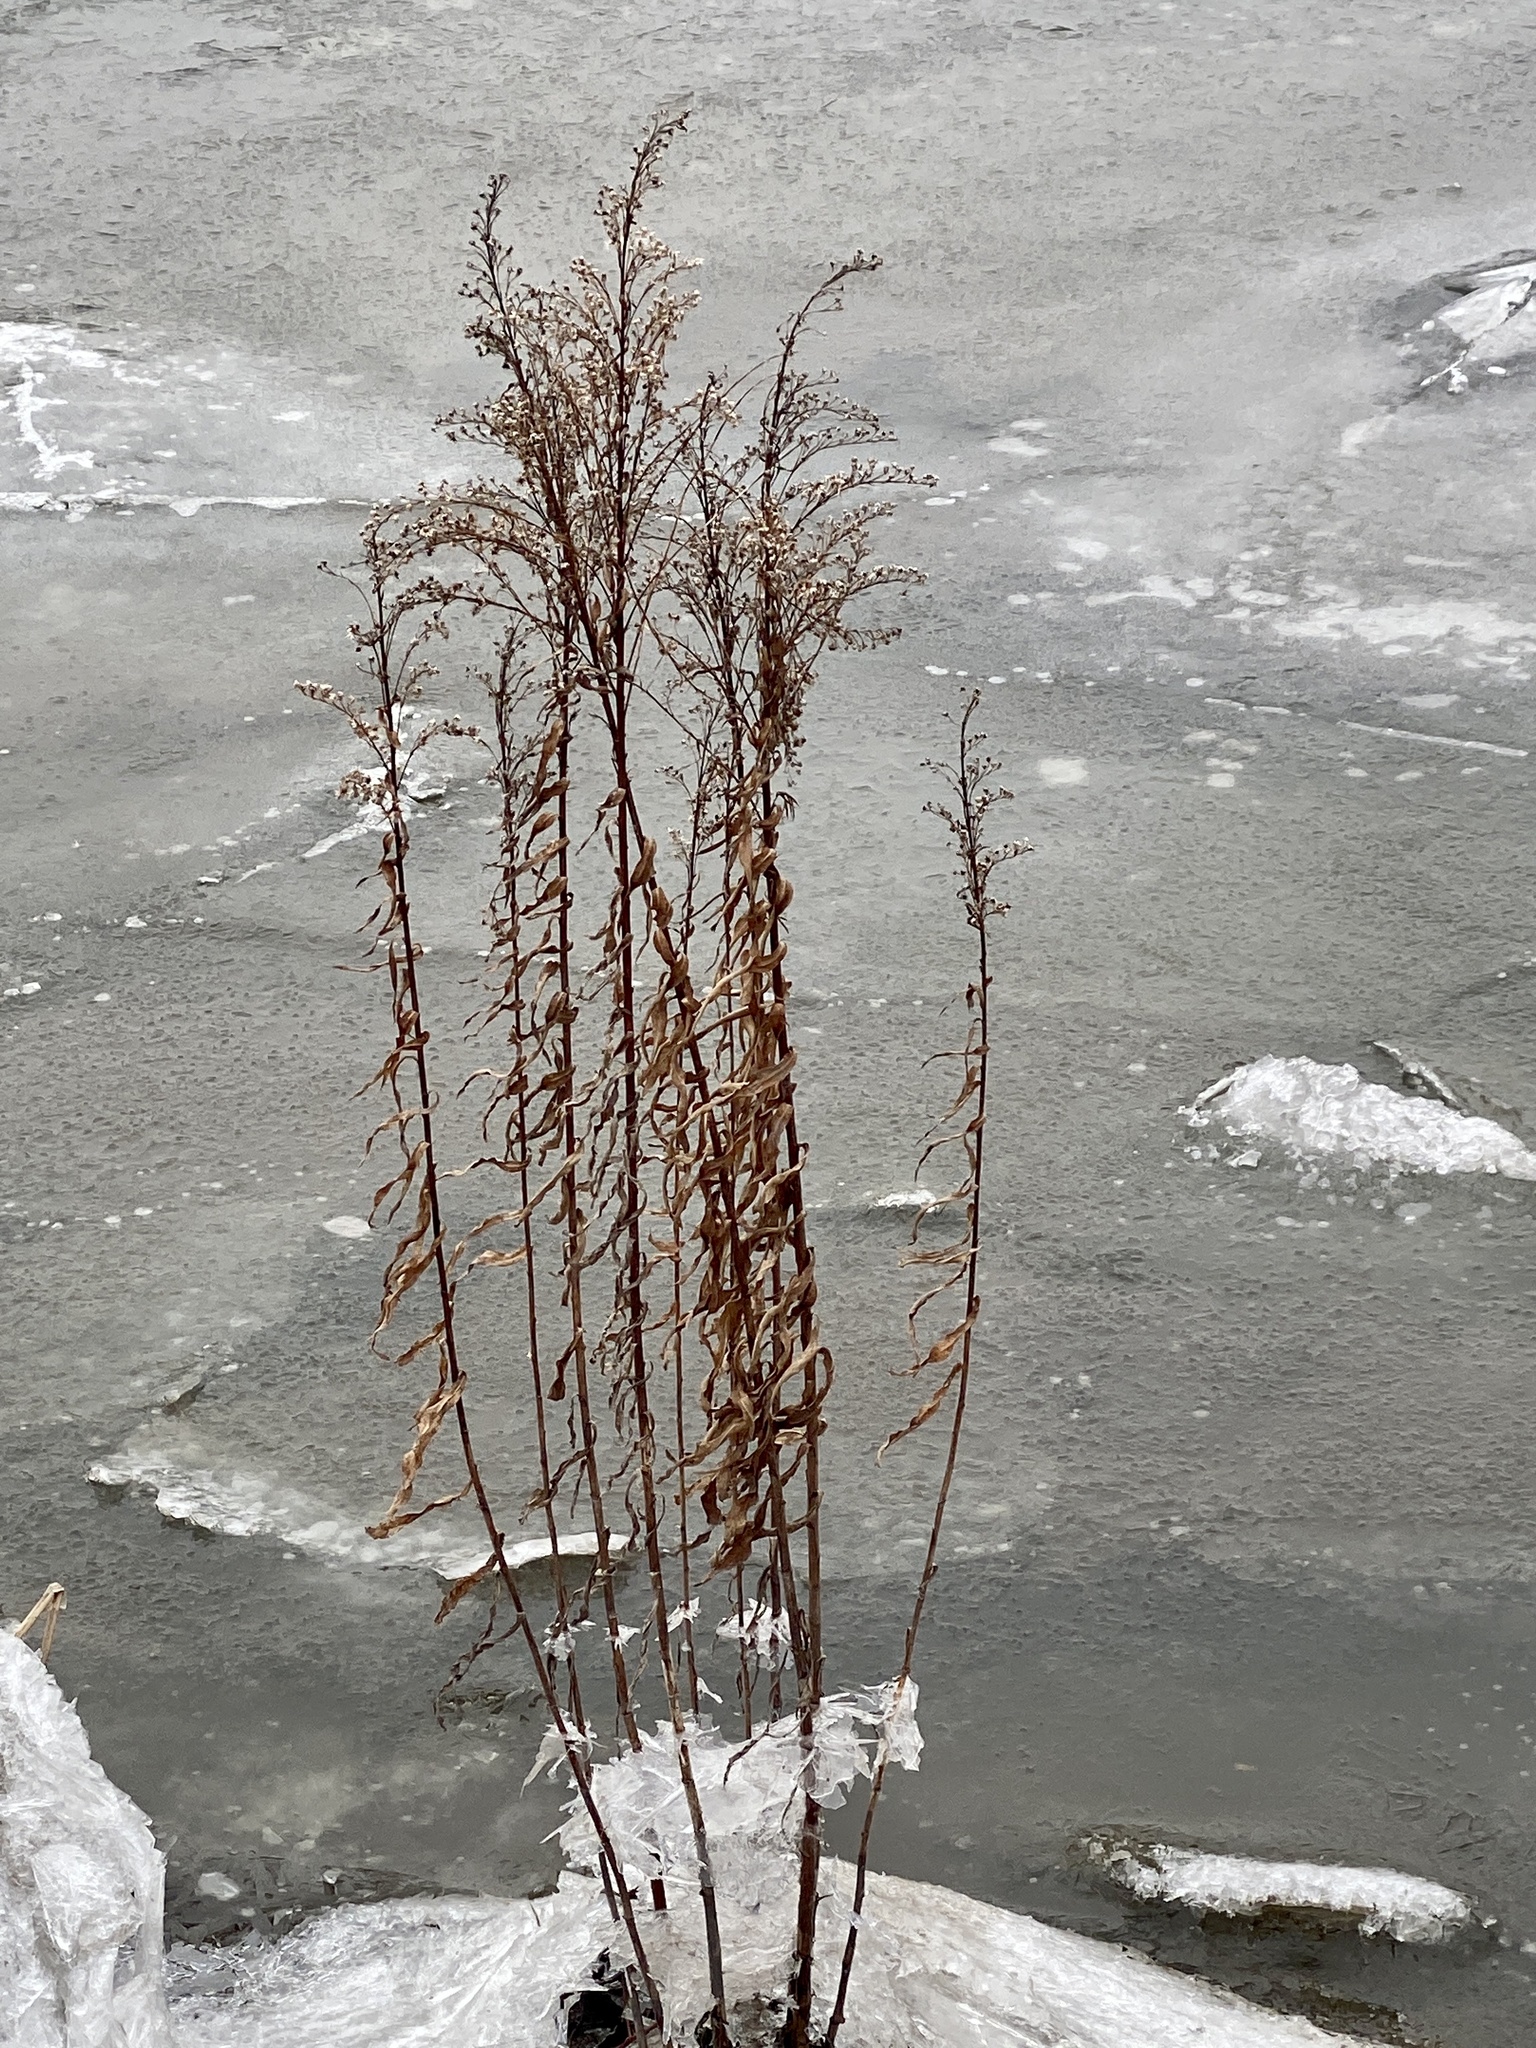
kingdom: Plantae
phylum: Tracheophyta
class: Magnoliopsida
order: Asterales
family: Asteraceae
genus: Solidago
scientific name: Solidago sempervirens
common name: Salt-marsh goldenrod
